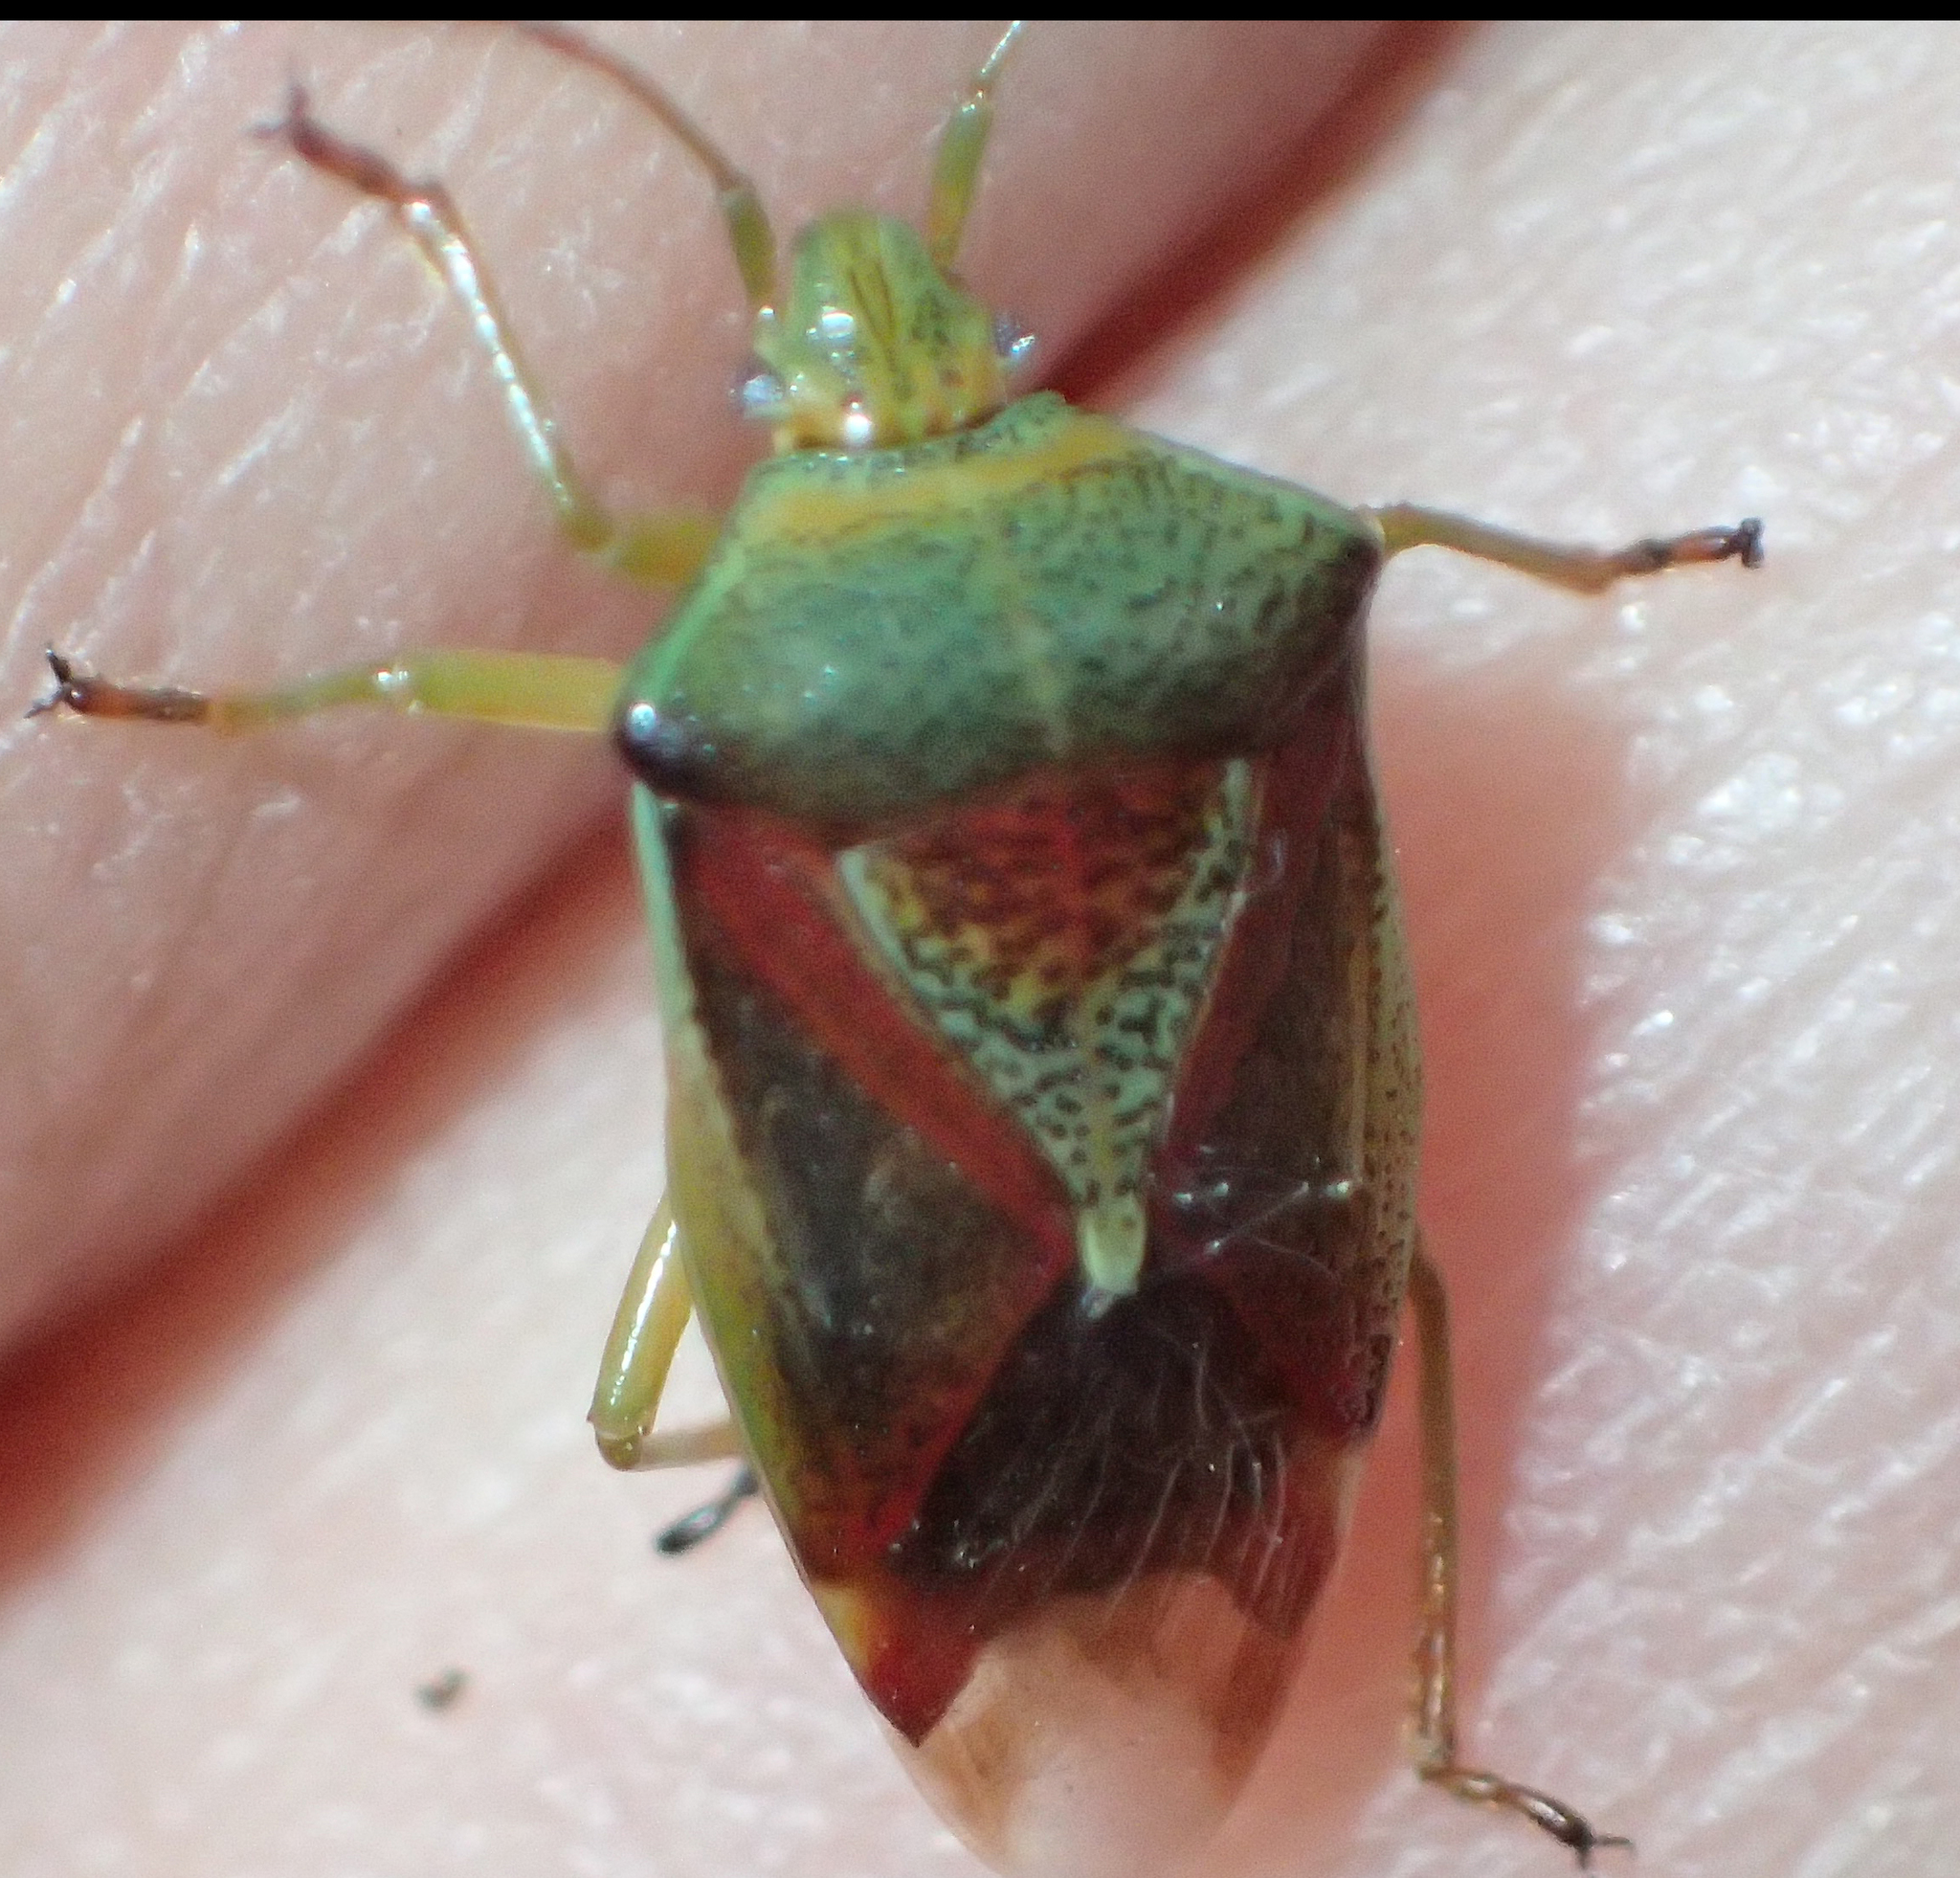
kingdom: Animalia
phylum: Arthropoda
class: Insecta
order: Hemiptera
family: Acanthosomatidae
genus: Elasmostethus
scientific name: Elasmostethus interstinctus
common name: Birch shieldbug
